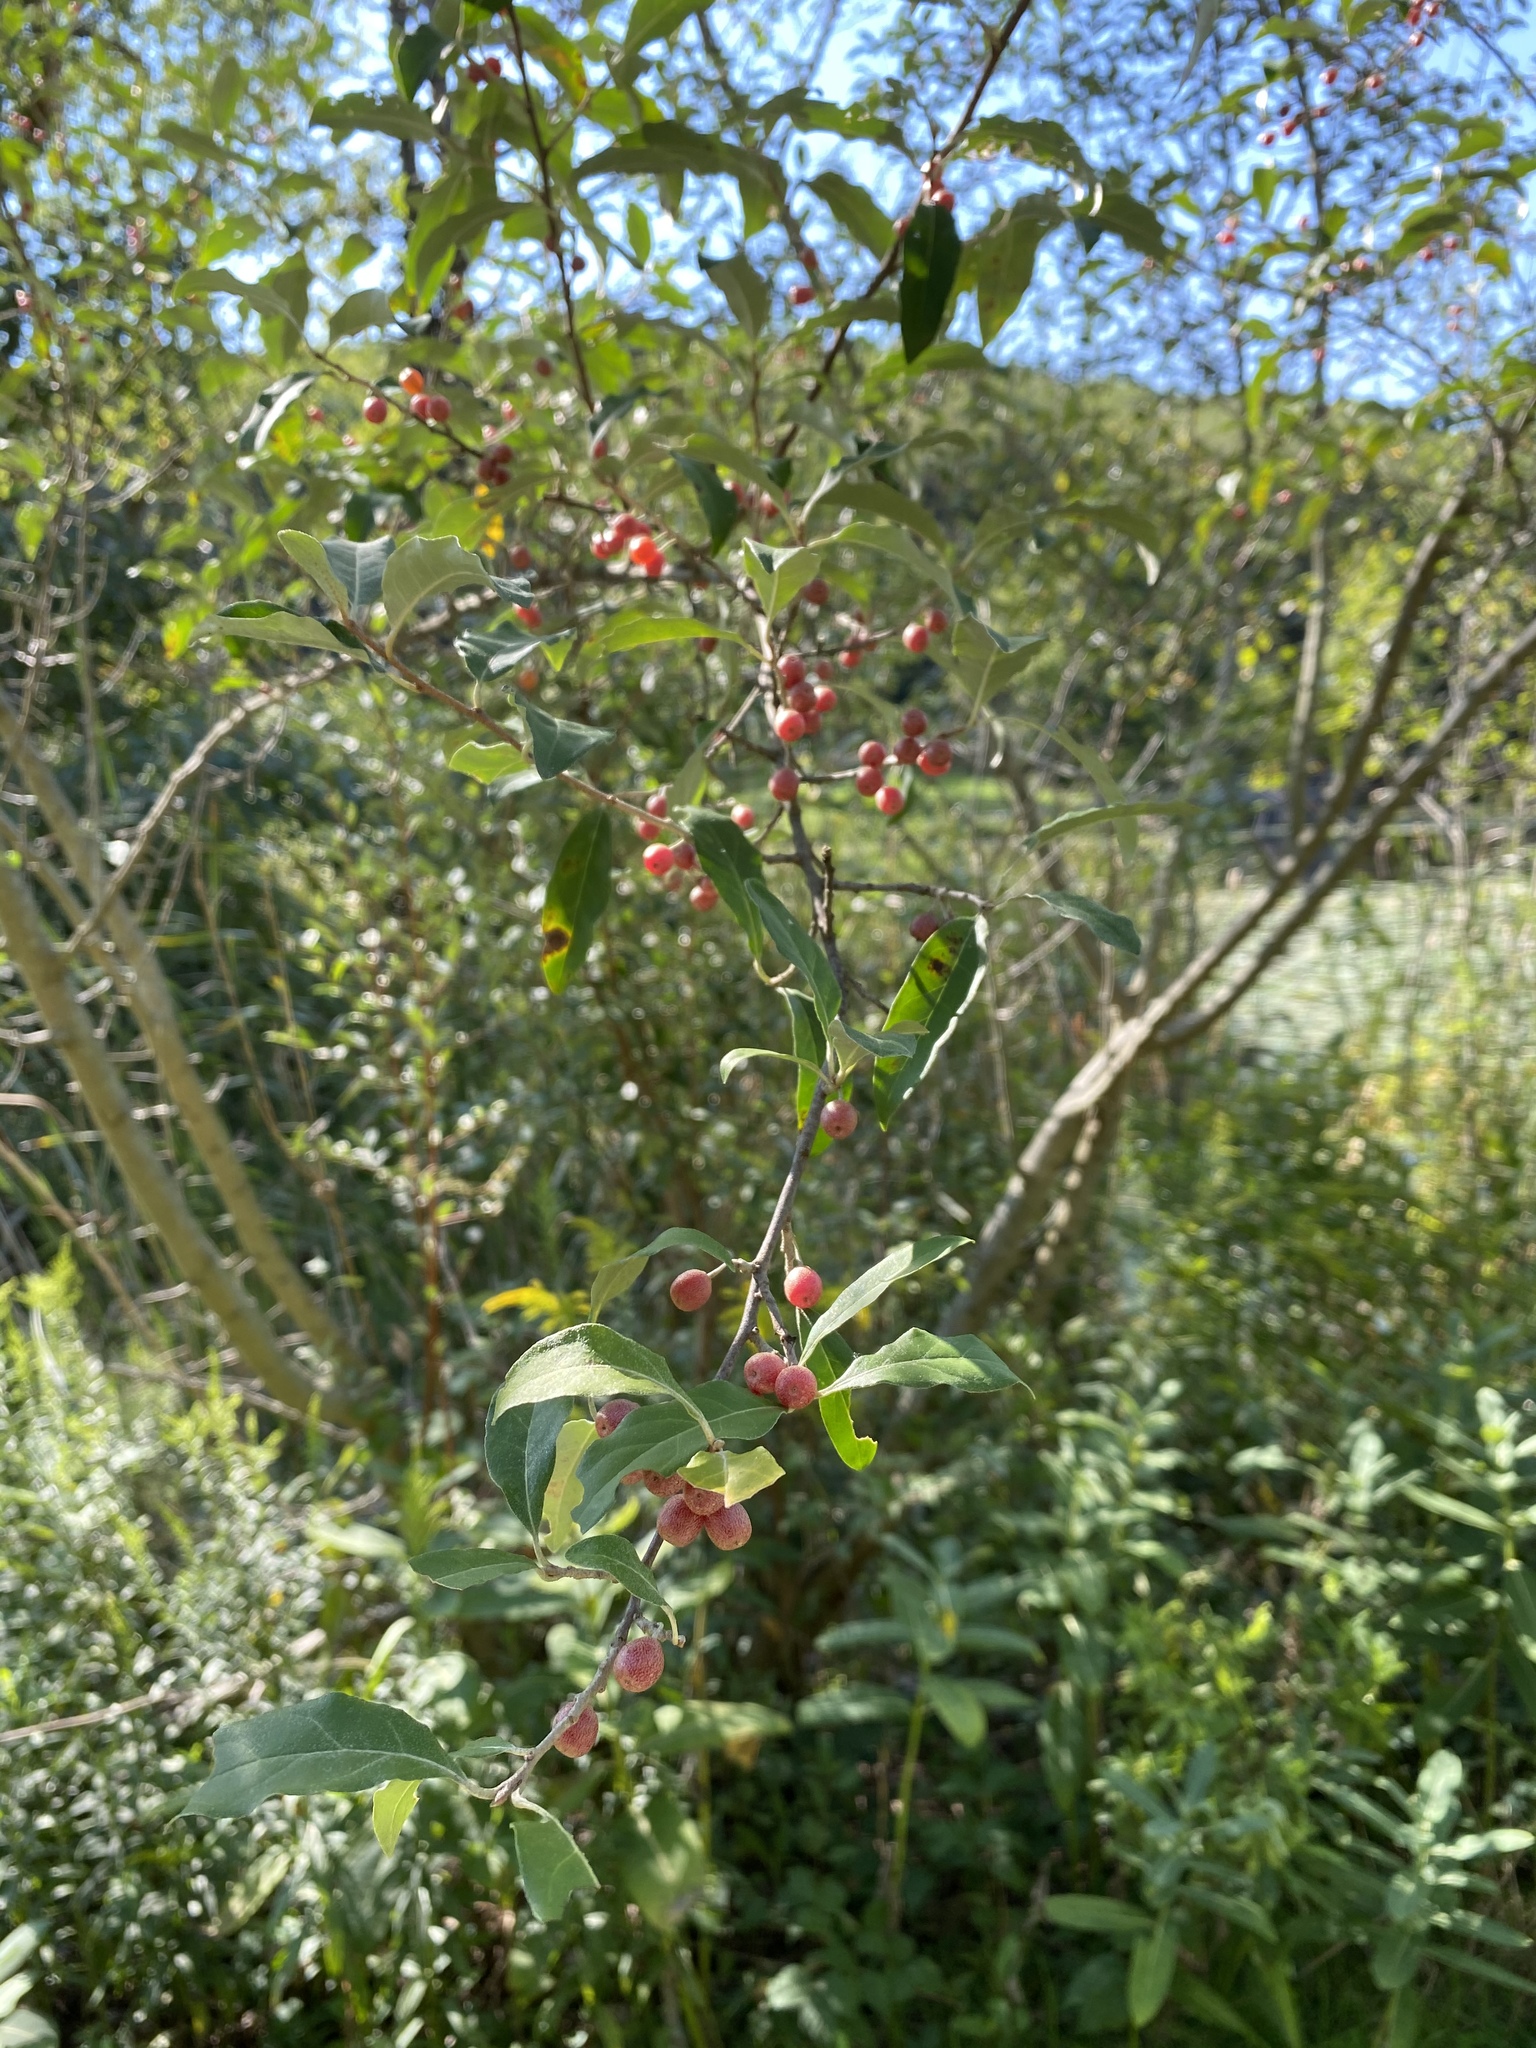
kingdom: Plantae
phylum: Tracheophyta
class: Magnoliopsida
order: Rosales
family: Elaeagnaceae
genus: Elaeagnus
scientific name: Elaeagnus umbellata
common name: Autumn olive
